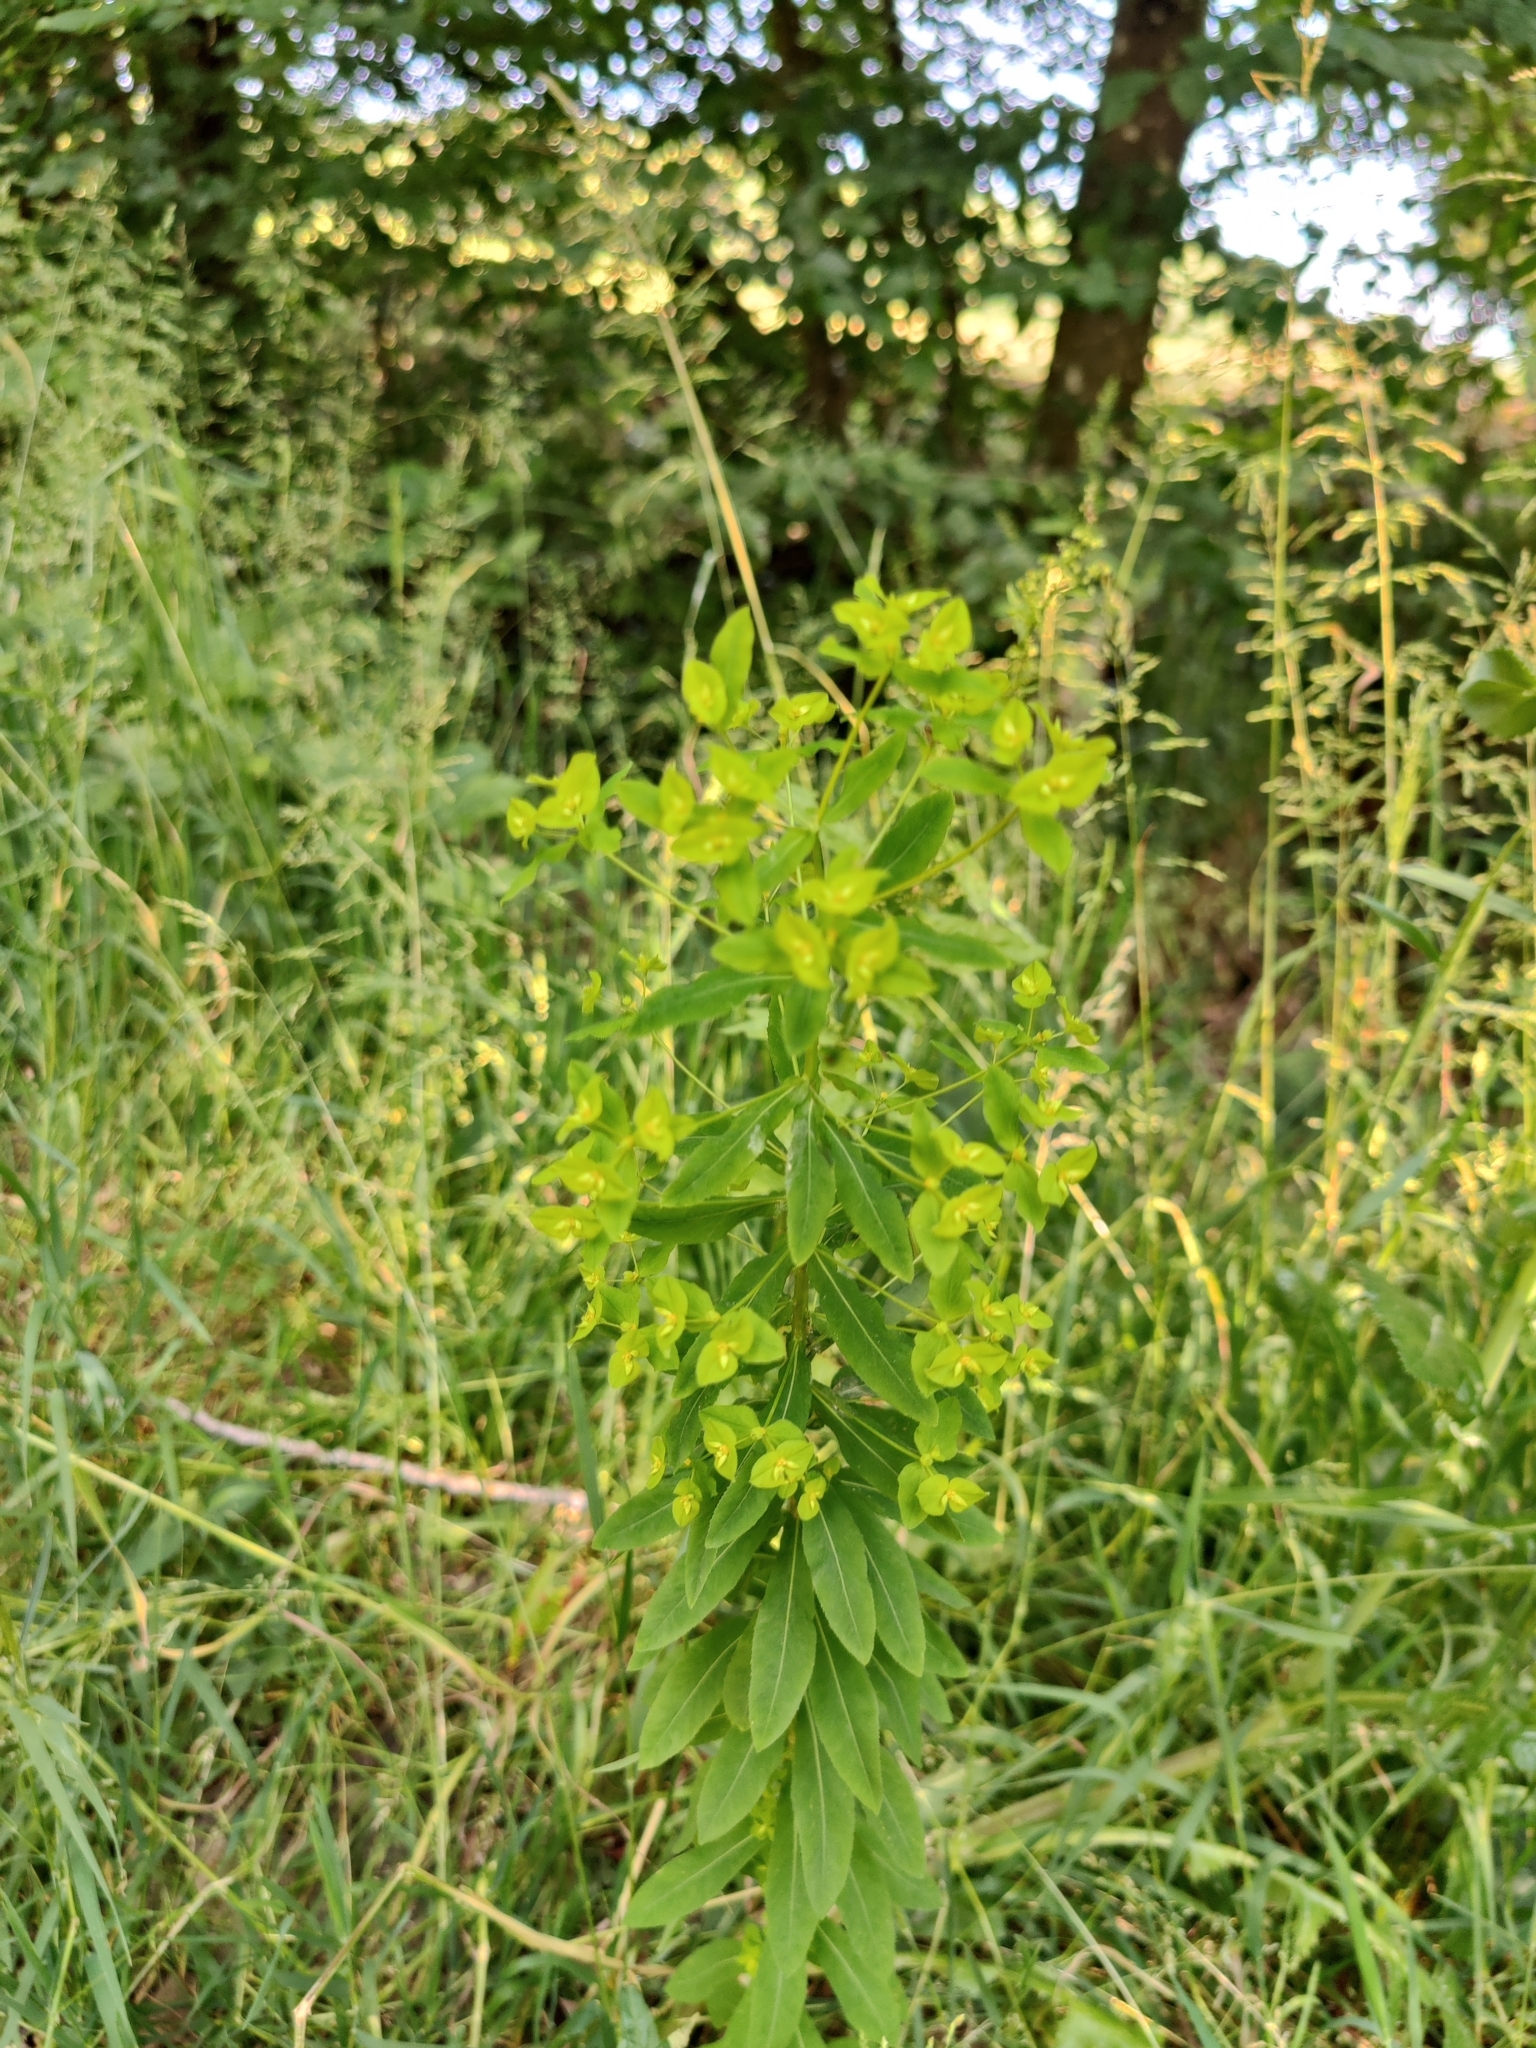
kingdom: Plantae
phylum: Tracheophyta
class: Magnoliopsida
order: Malpighiales
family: Euphorbiaceae
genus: Euphorbia
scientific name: Euphorbia stricta
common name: Upright spurge
